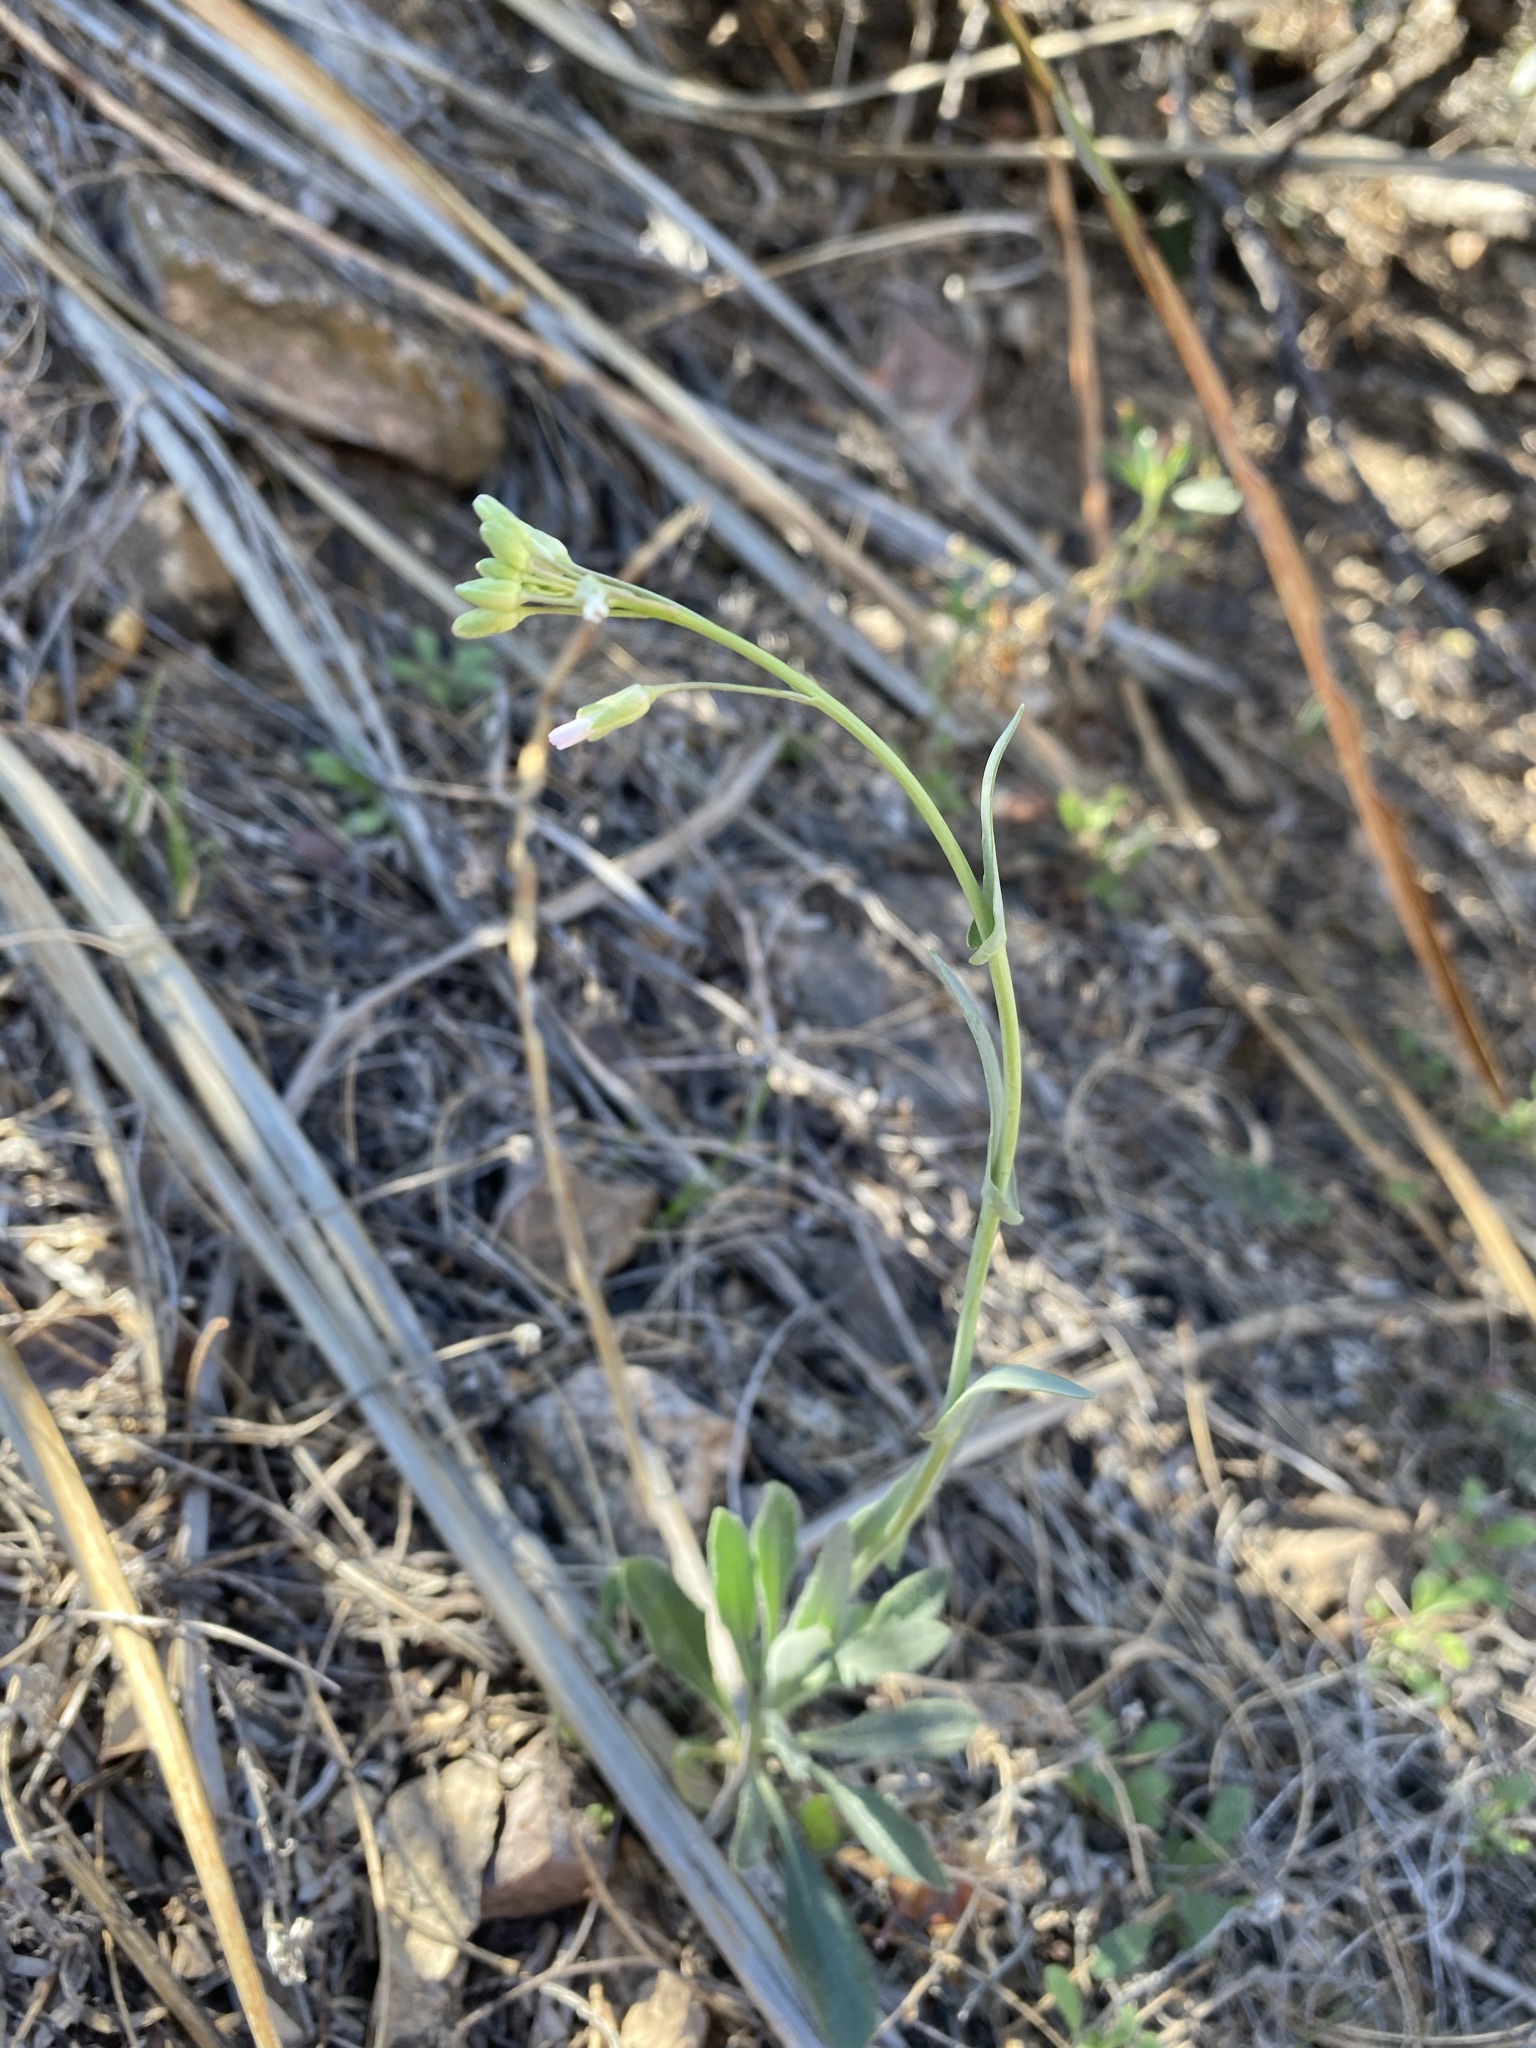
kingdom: Plantae
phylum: Tracheophyta
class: Magnoliopsida
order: Brassicales
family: Brassicaceae
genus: Boechera
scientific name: Boechera texana
